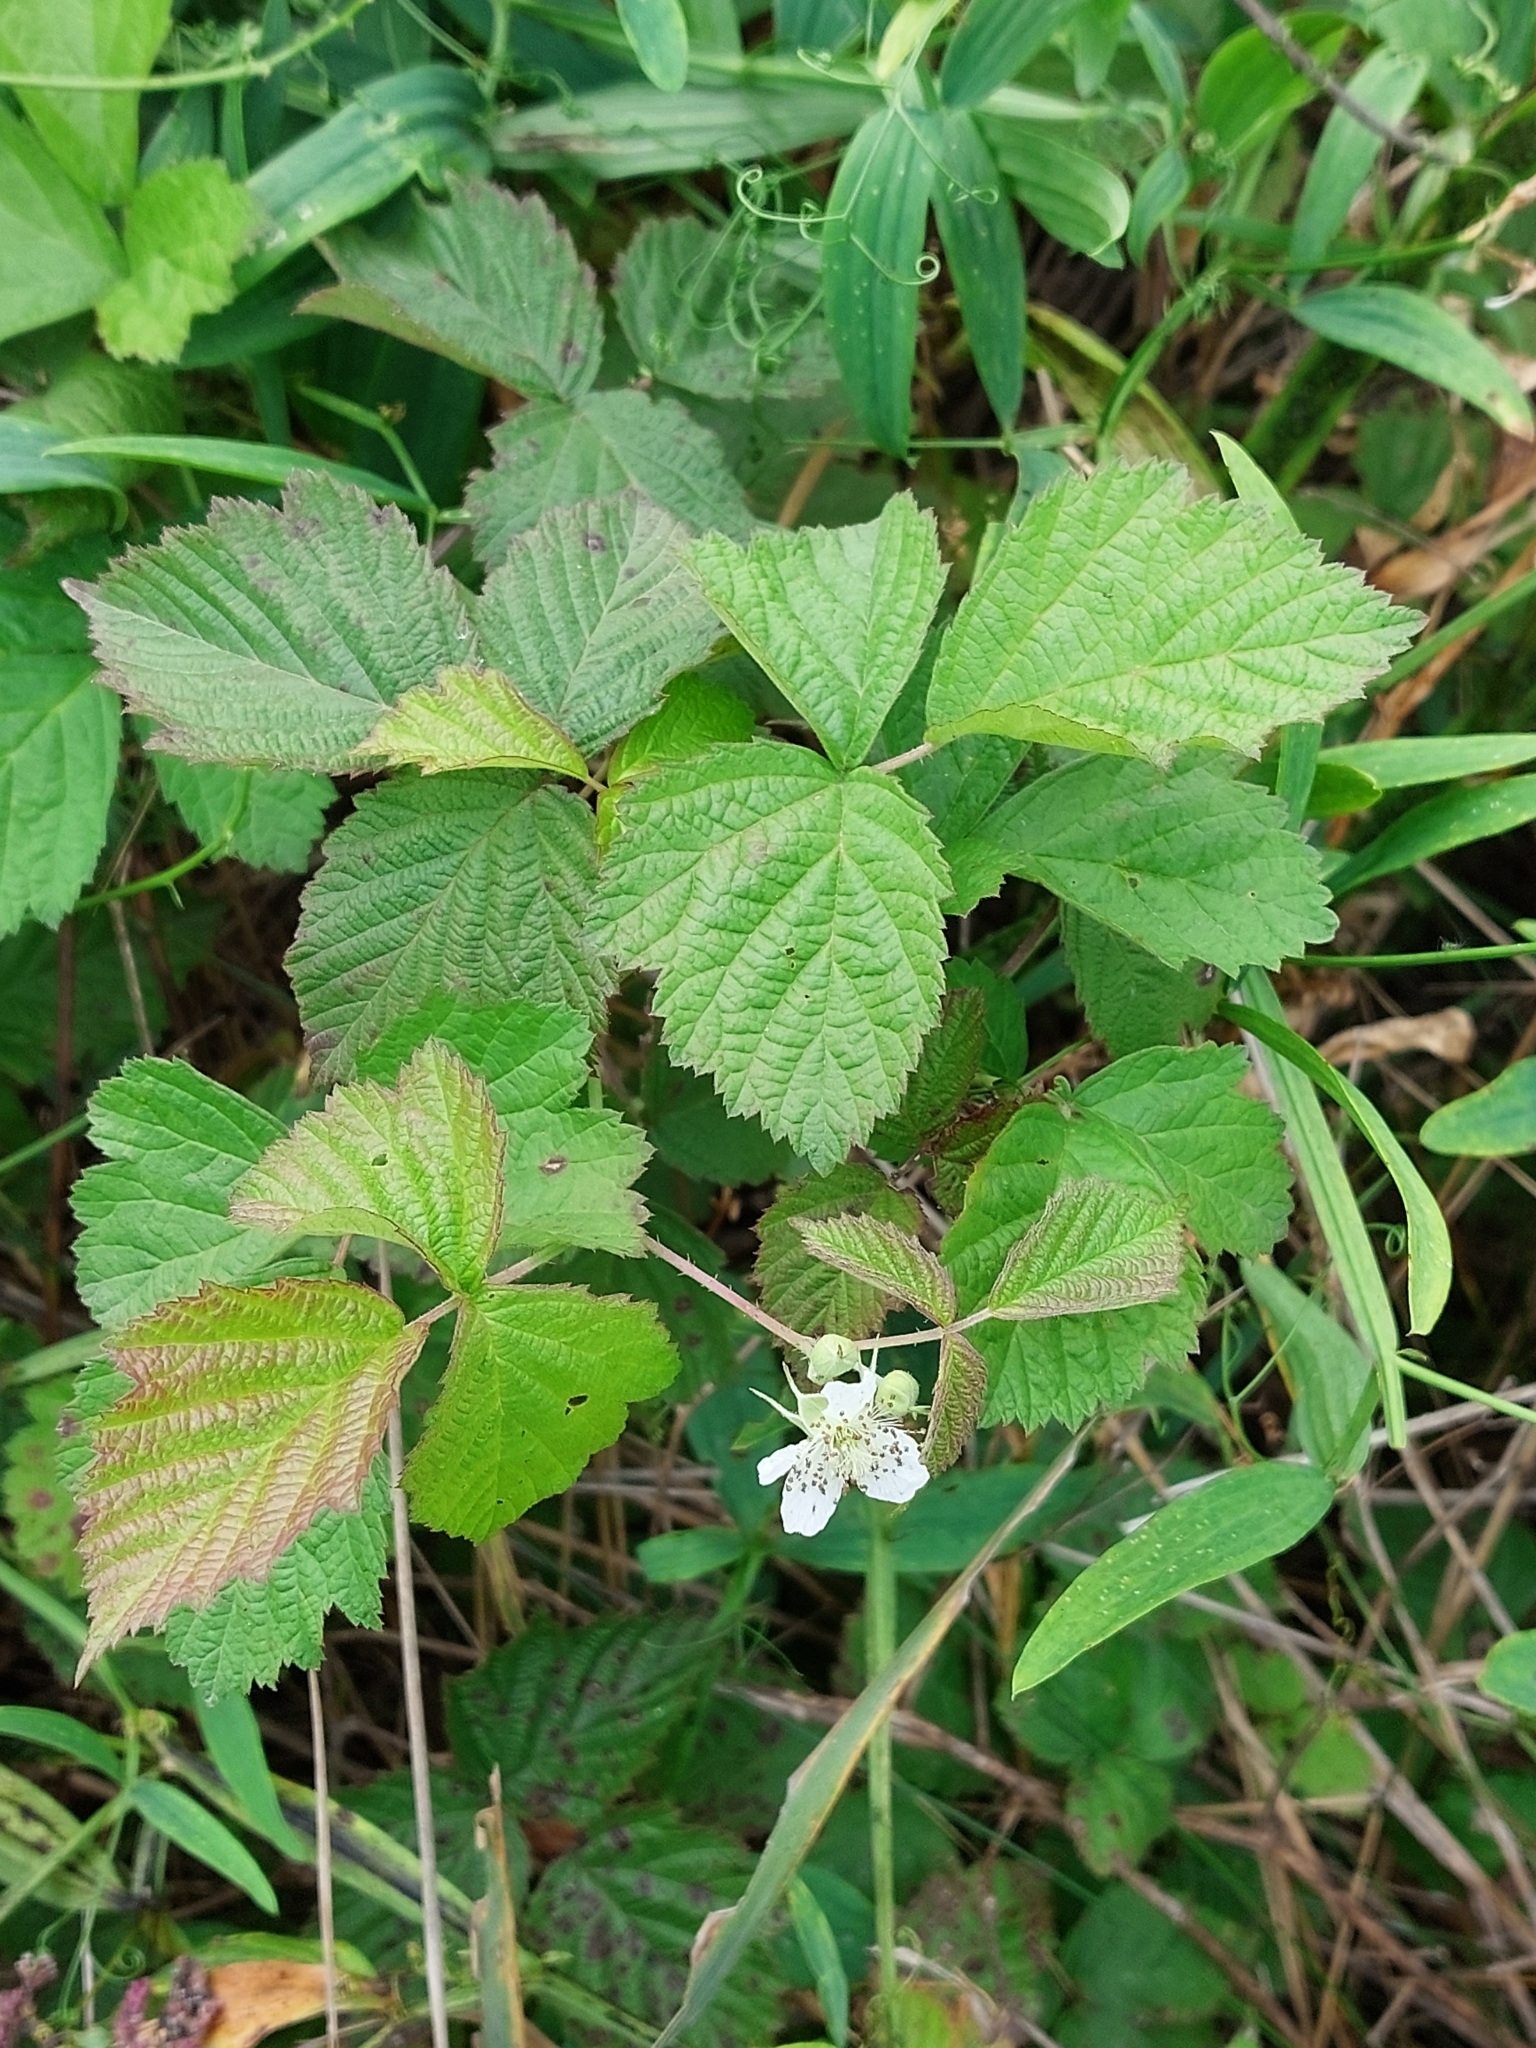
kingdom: Plantae
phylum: Tracheophyta
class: Magnoliopsida
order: Rosales
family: Rosaceae
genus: Rubus
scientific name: Rubus caesius
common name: Dewberry
